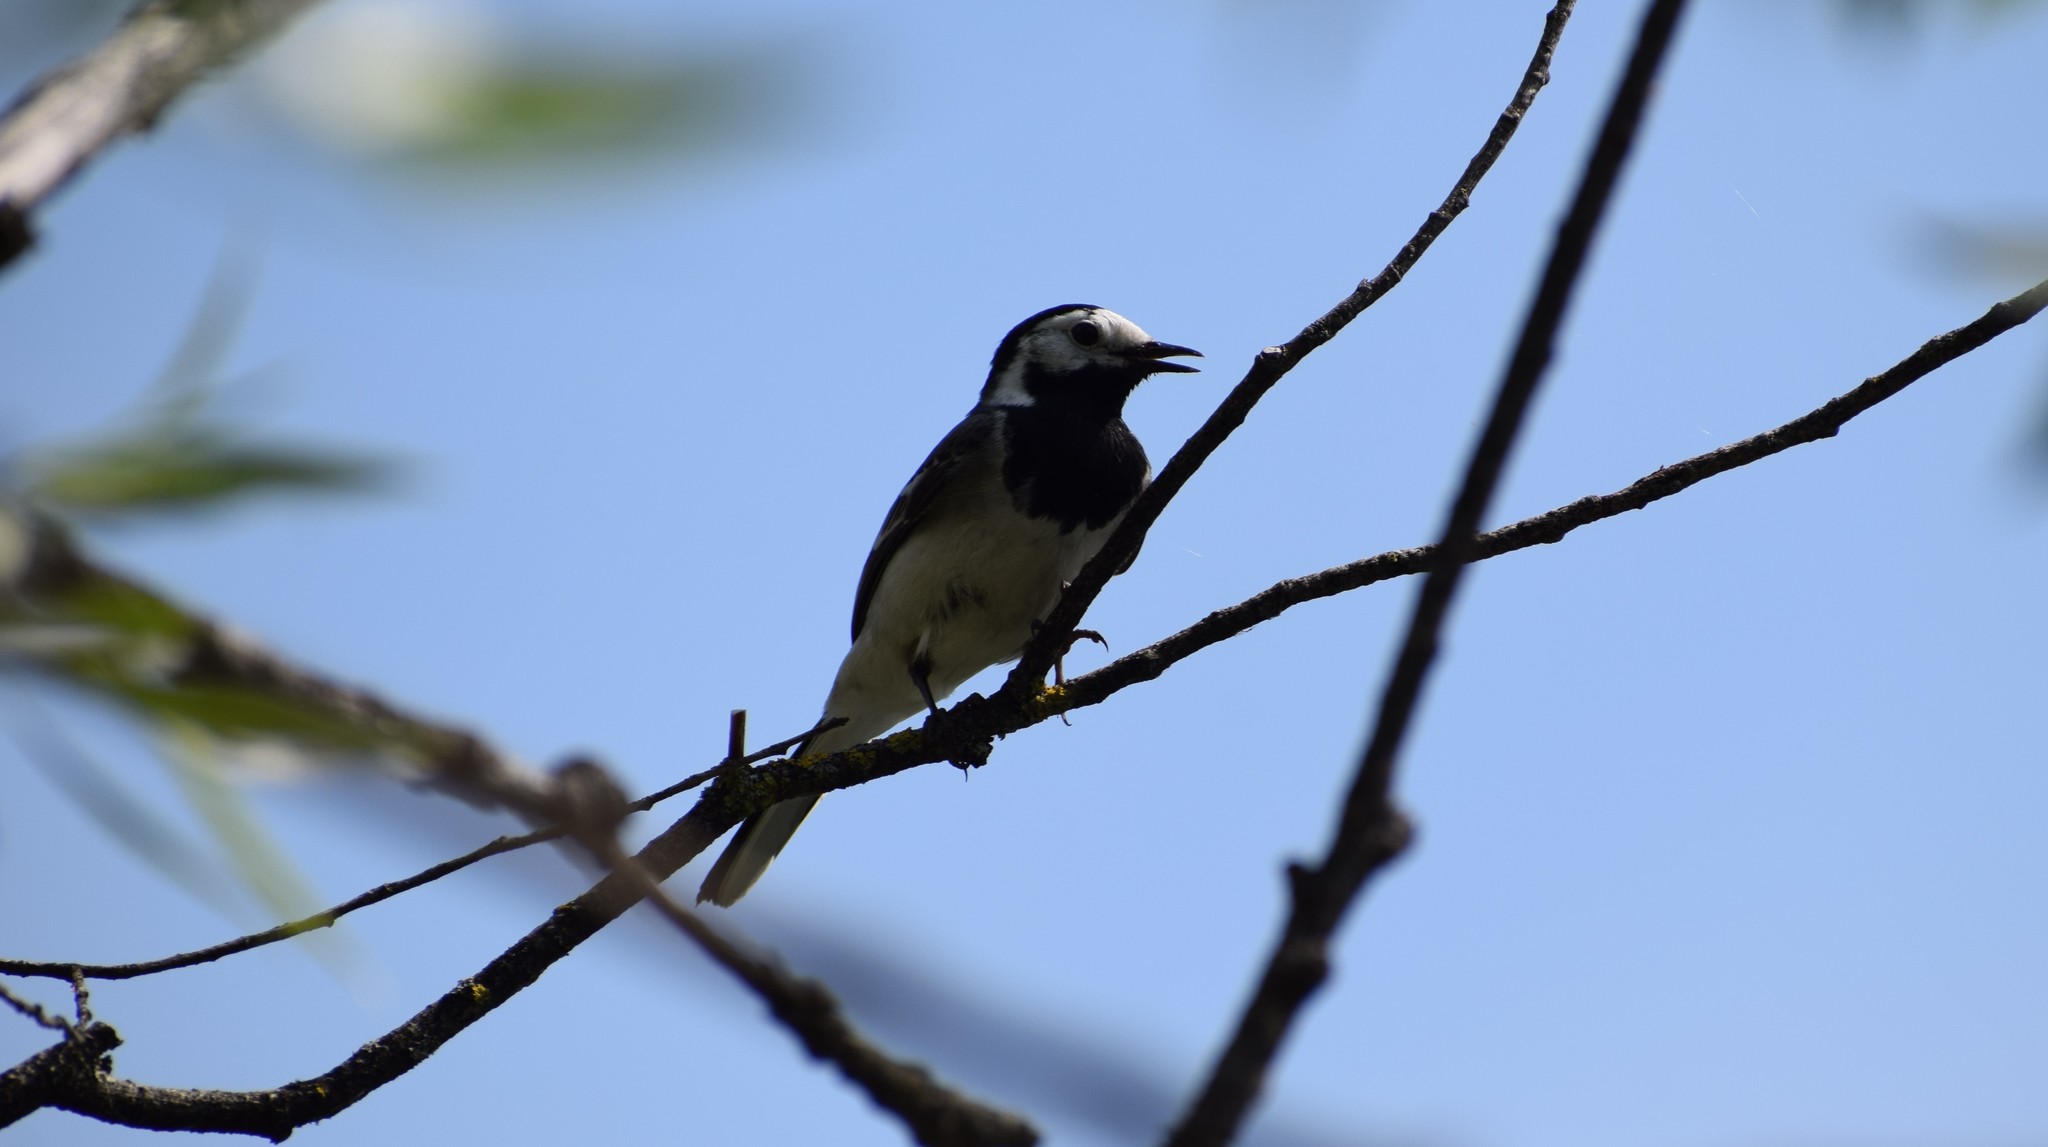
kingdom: Animalia
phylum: Chordata
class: Aves
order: Passeriformes
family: Motacillidae
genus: Motacilla
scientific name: Motacilla alba
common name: White wagtail
